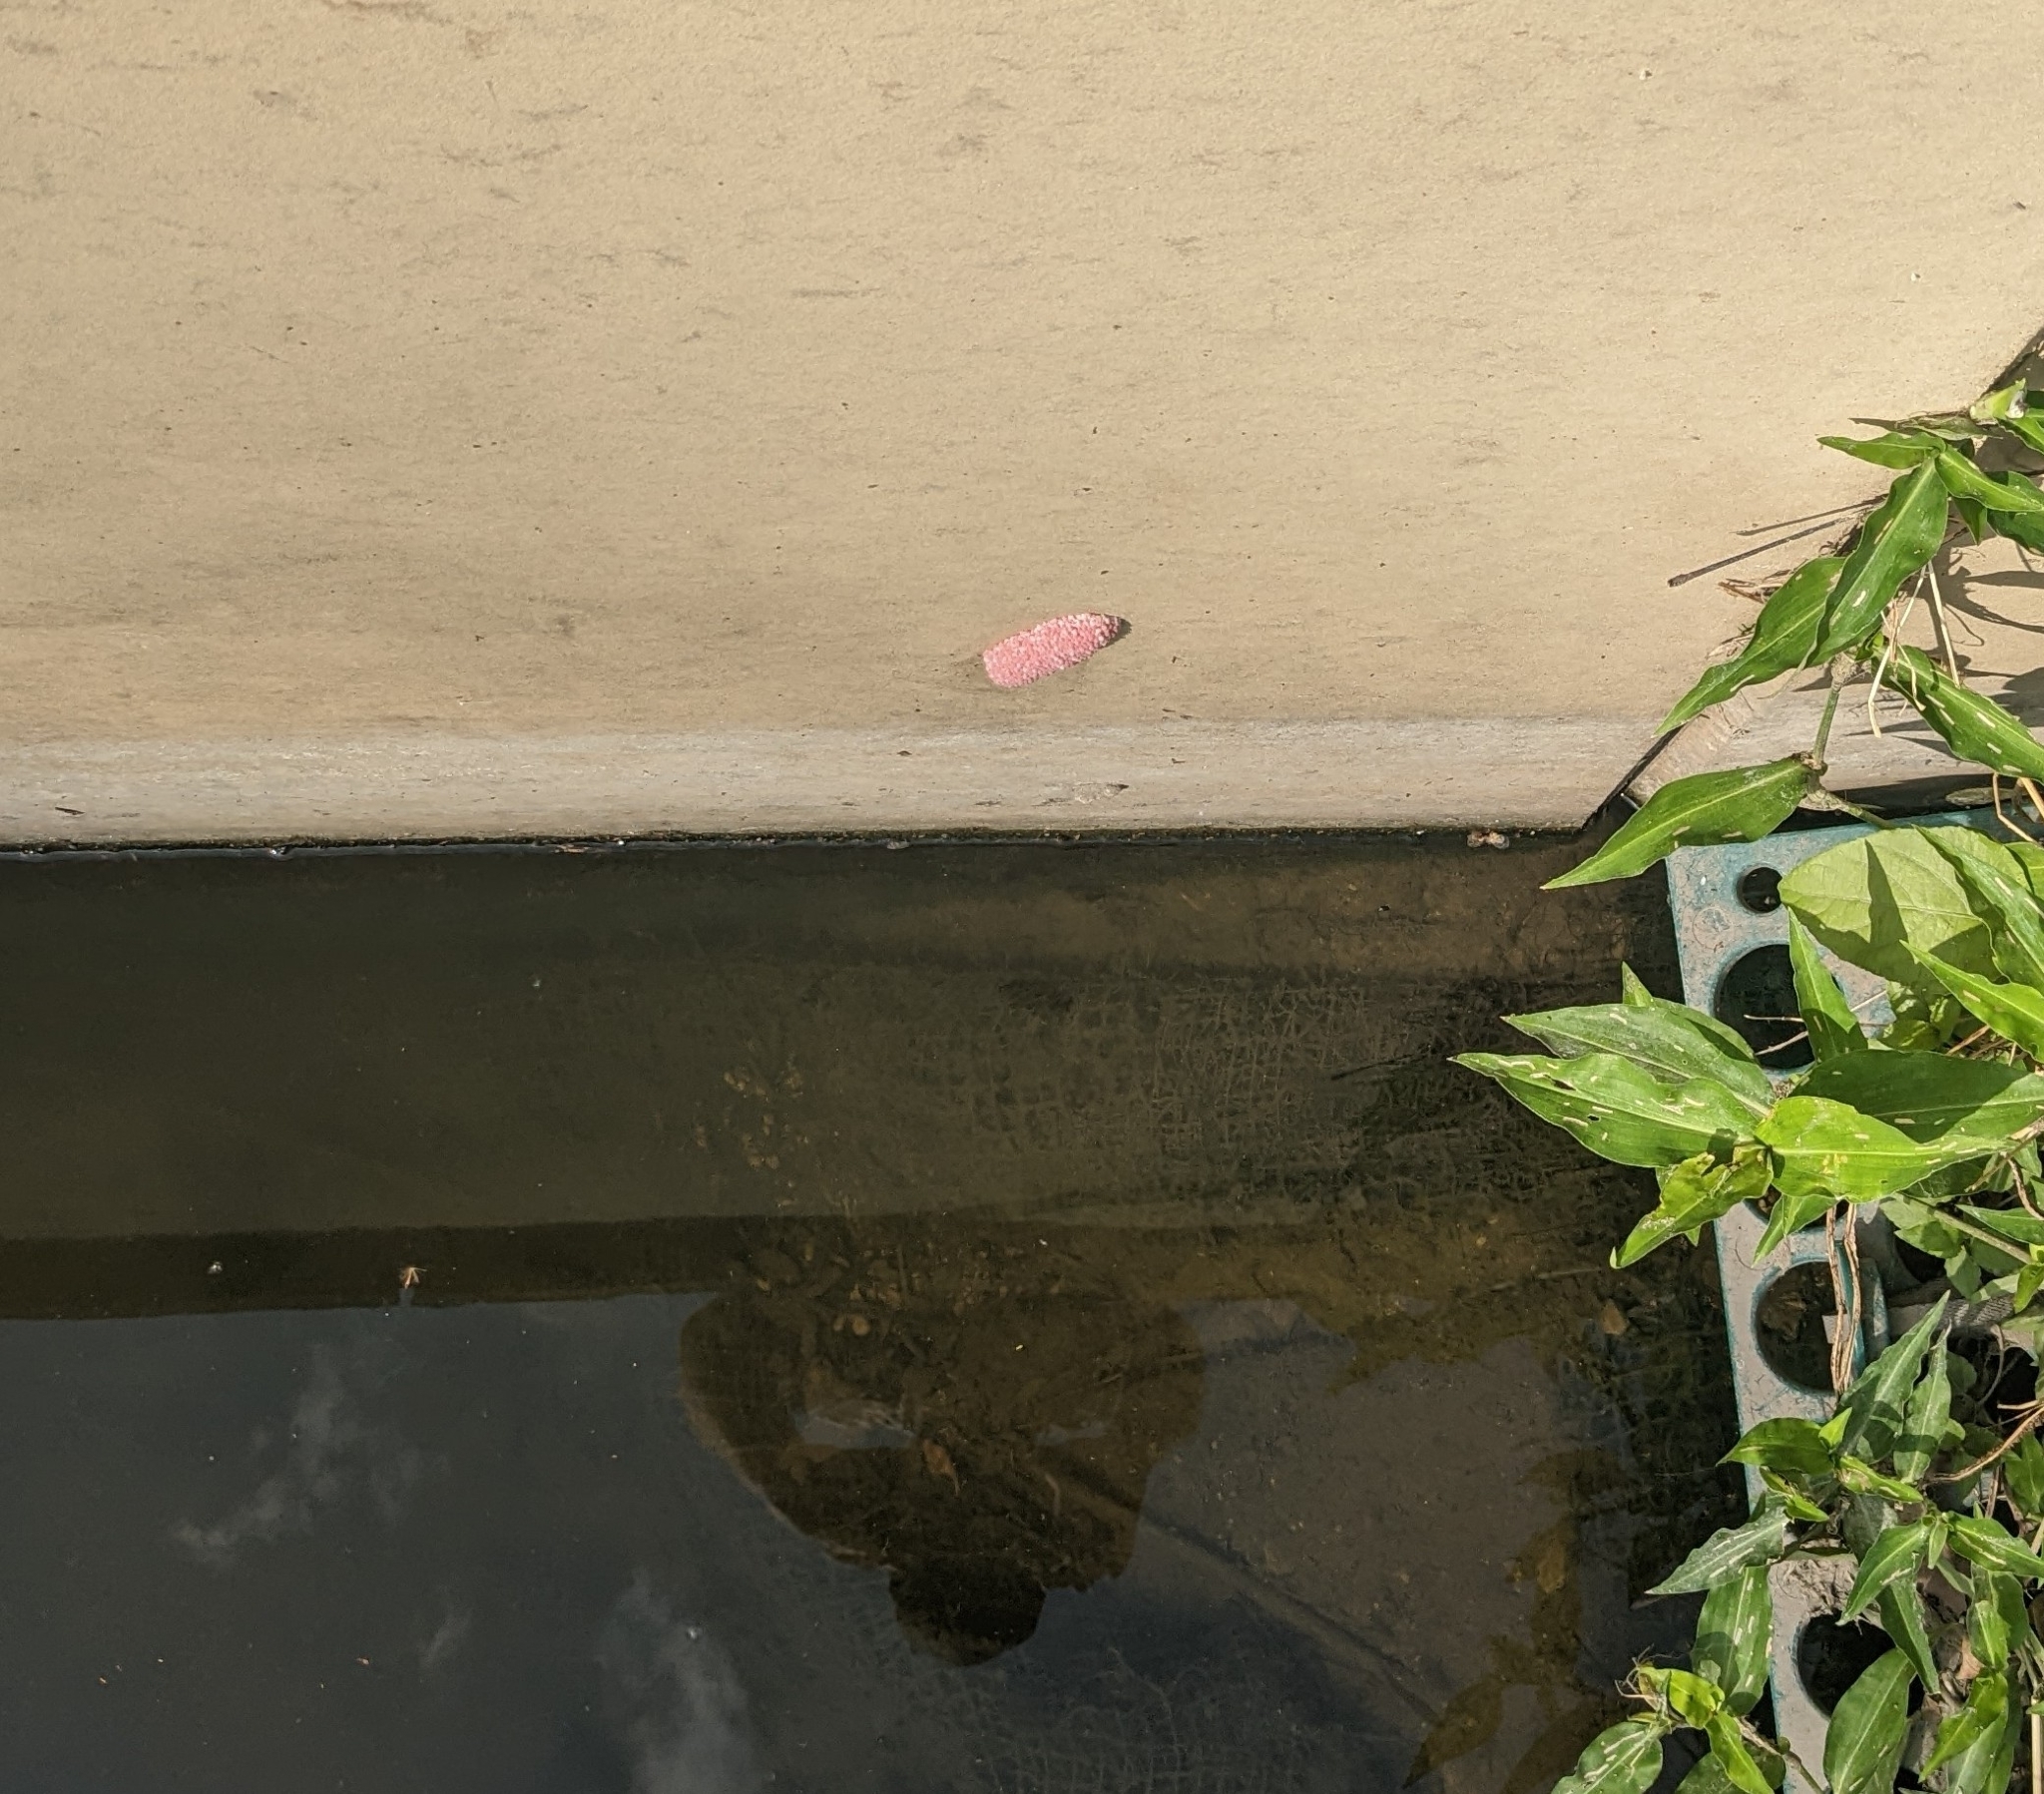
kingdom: Animalia
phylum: Mollusca
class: Gastropoda
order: Architaenioglossa
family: Ampullariidae
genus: Pomacea
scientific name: Pomacea maculata
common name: Giant applesnail
